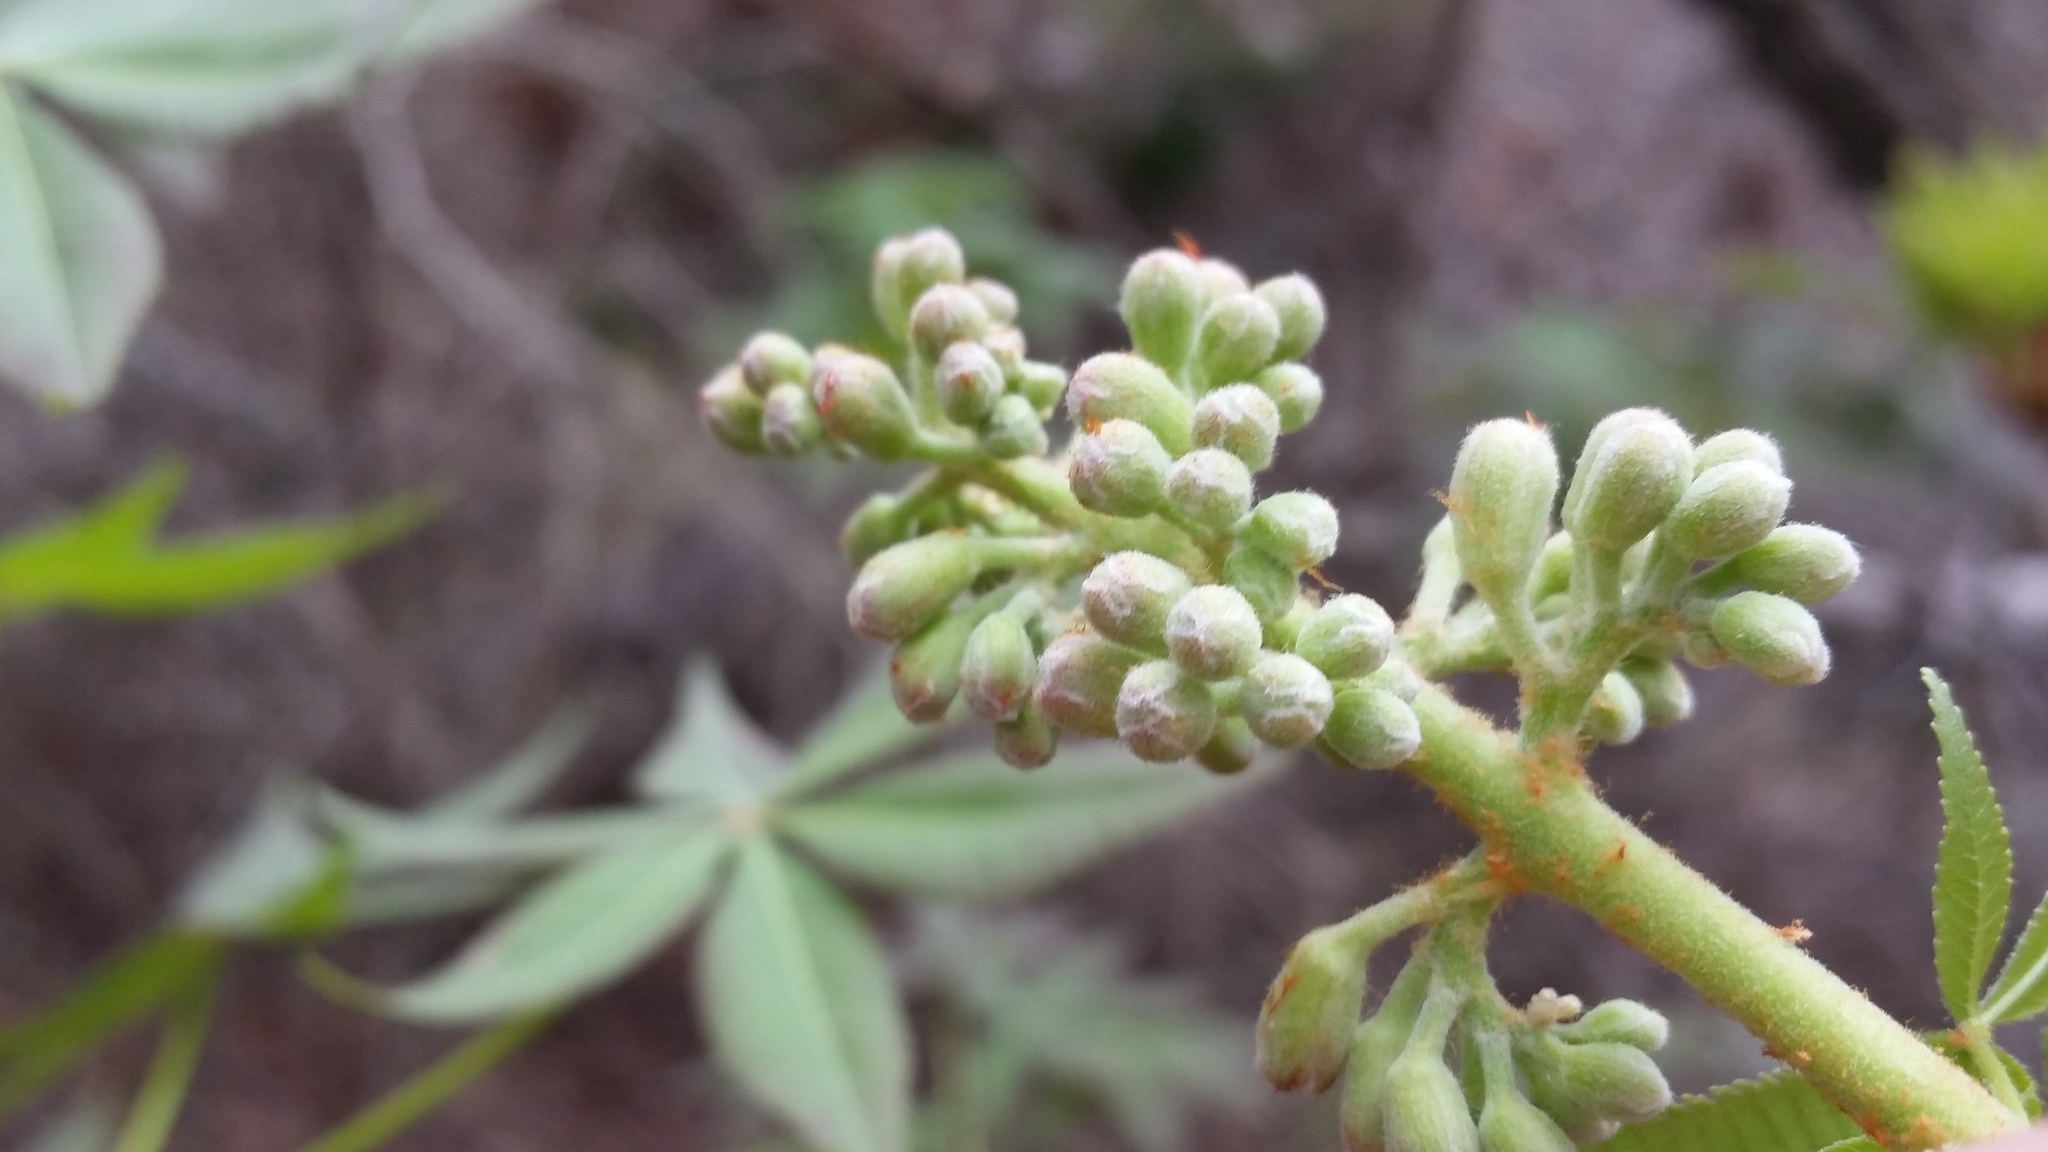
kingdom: Plantae
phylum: Tracheophyta
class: Magnoliopsida
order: Sapindales
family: Sapindaceae
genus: Aesculus
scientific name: Aesculus glabra
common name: Ohio buckeye
